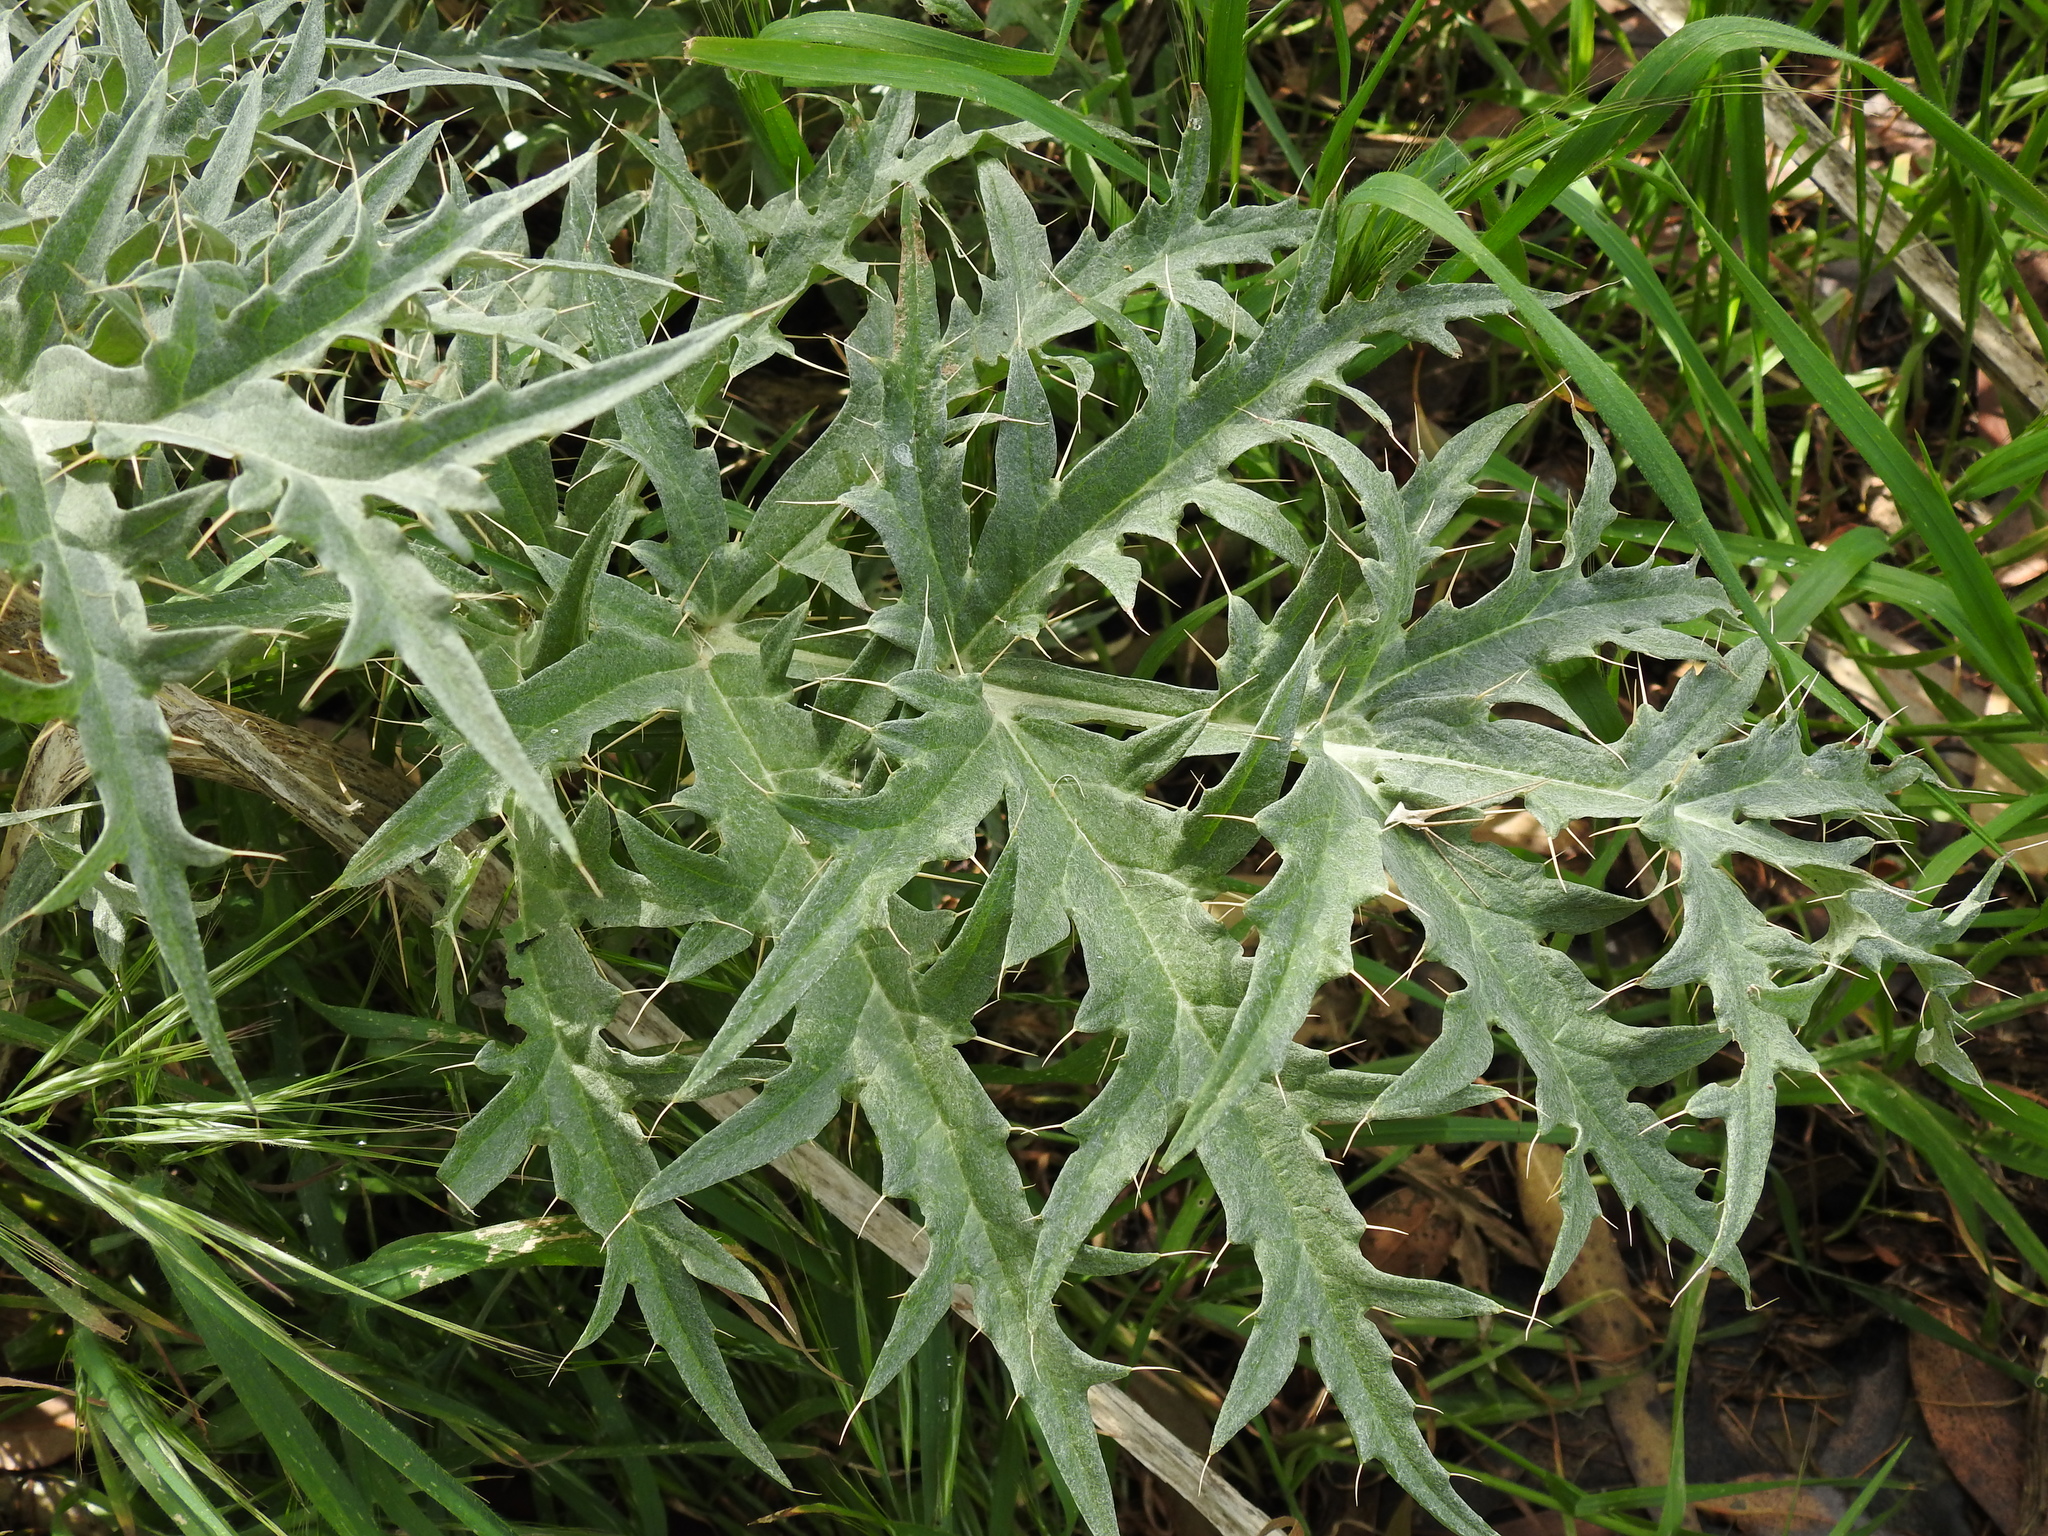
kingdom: Plantae
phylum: Tracheophyta
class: Magnoliopsida
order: Asterales
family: Asteraceae
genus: Cynara
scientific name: Cynara cardunculus
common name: Globe artichoke
